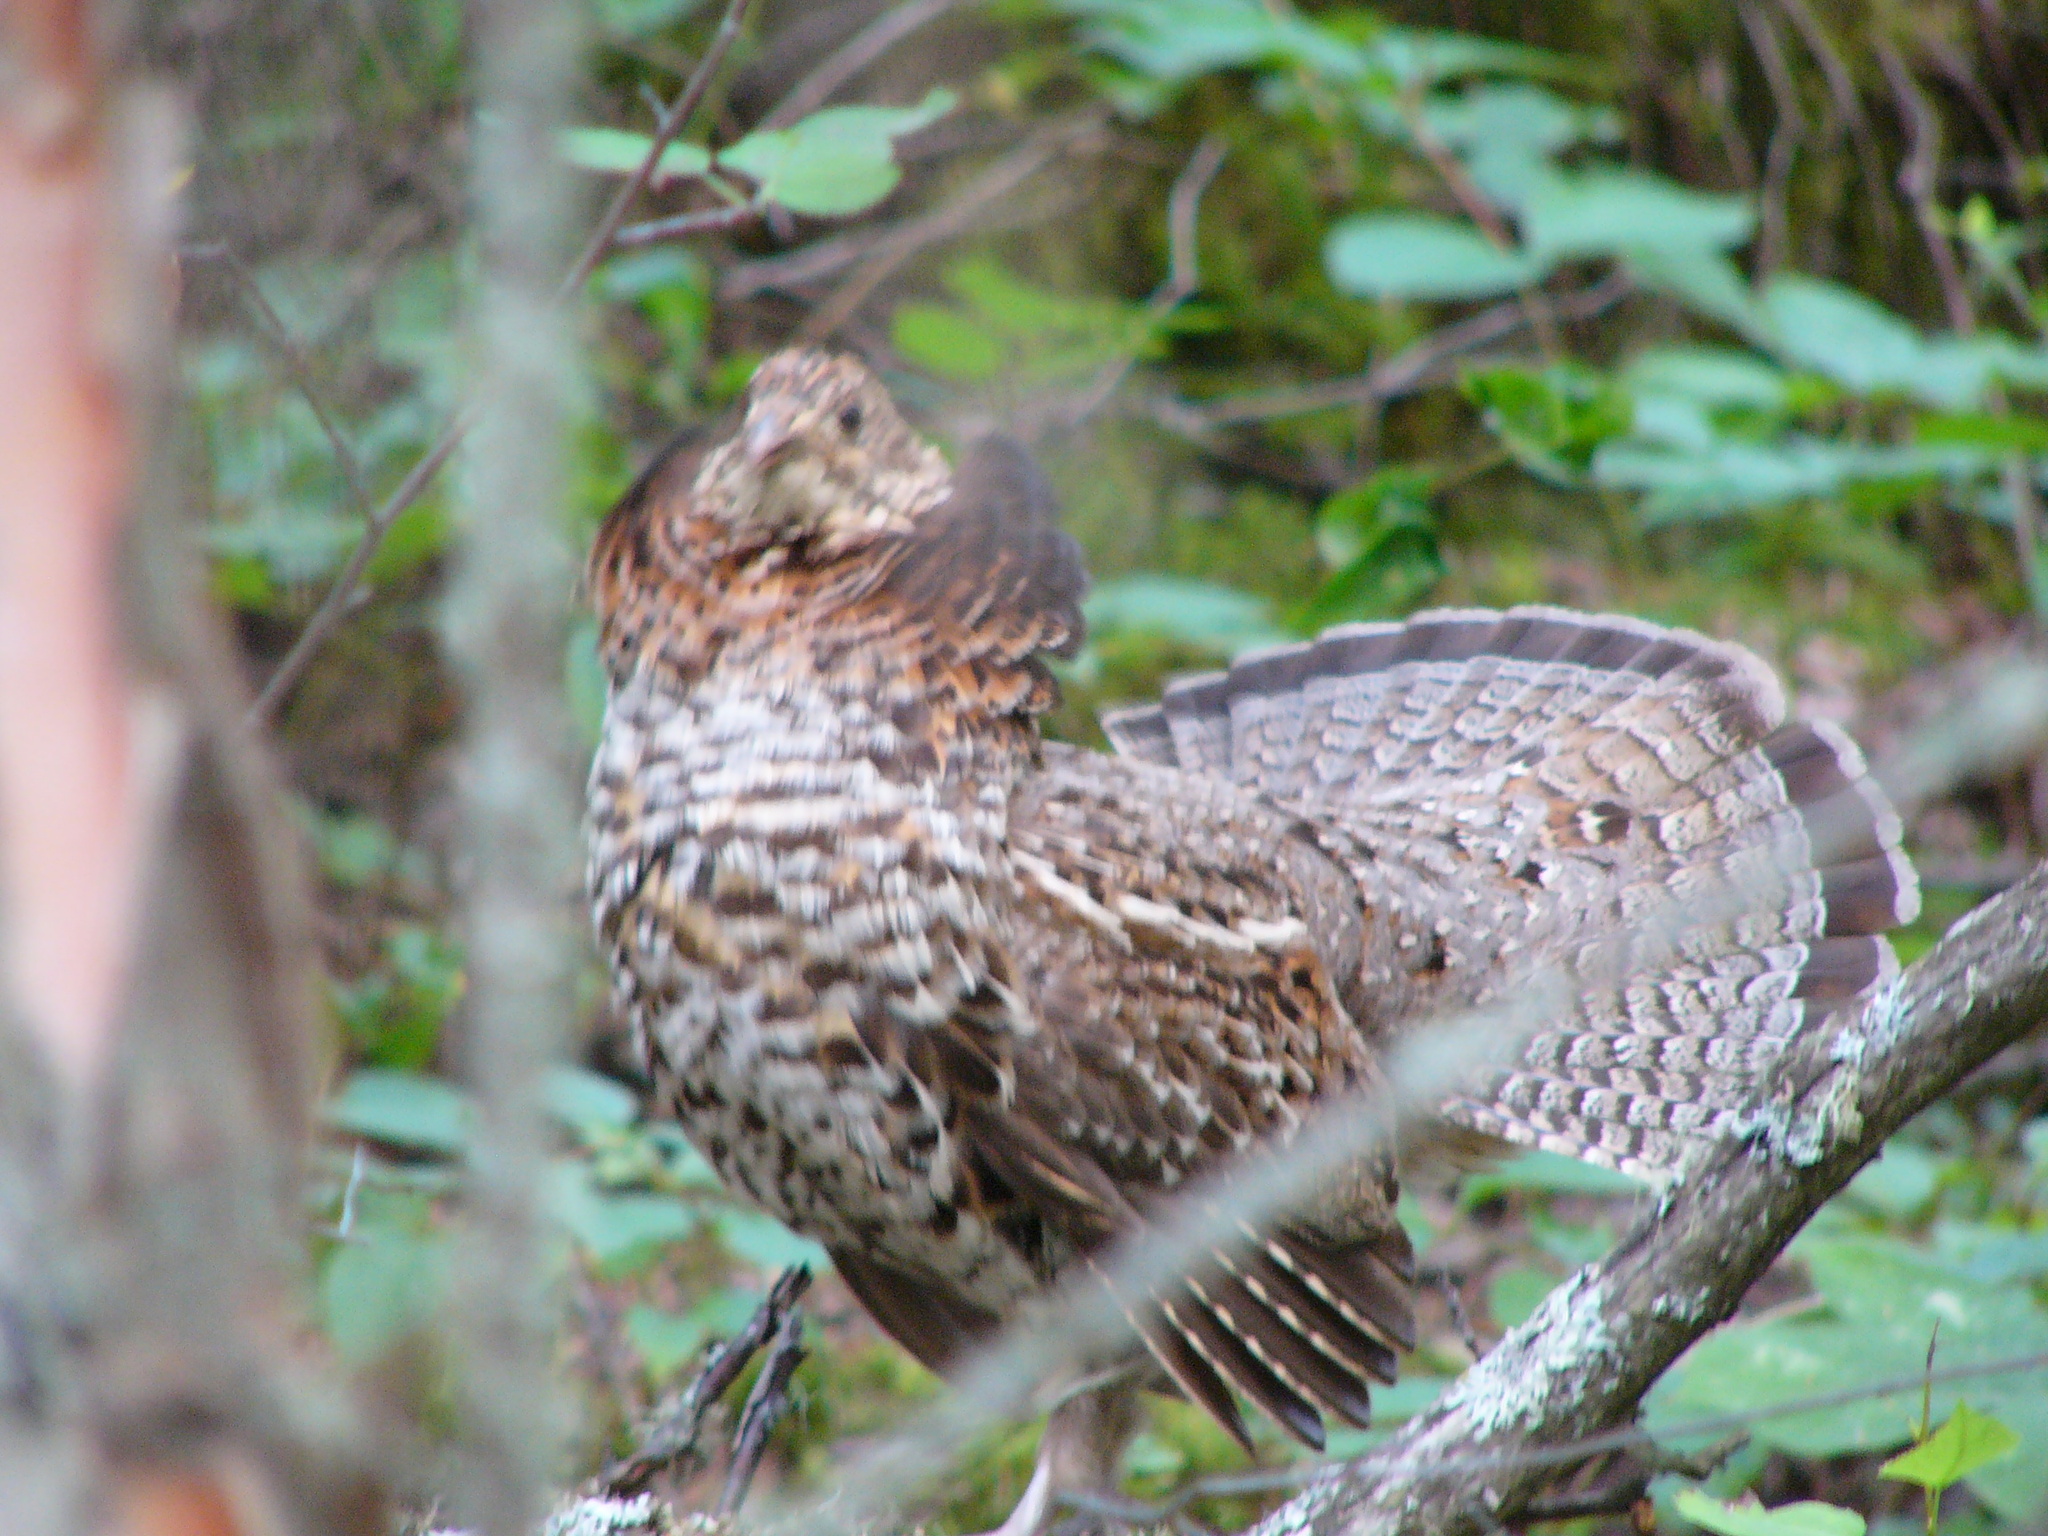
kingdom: Animalia
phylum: Chordata
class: Aves
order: Galliformes
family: Phasianidae
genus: Bonasa
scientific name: Bonasa umbellus
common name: Ruffed grouse
